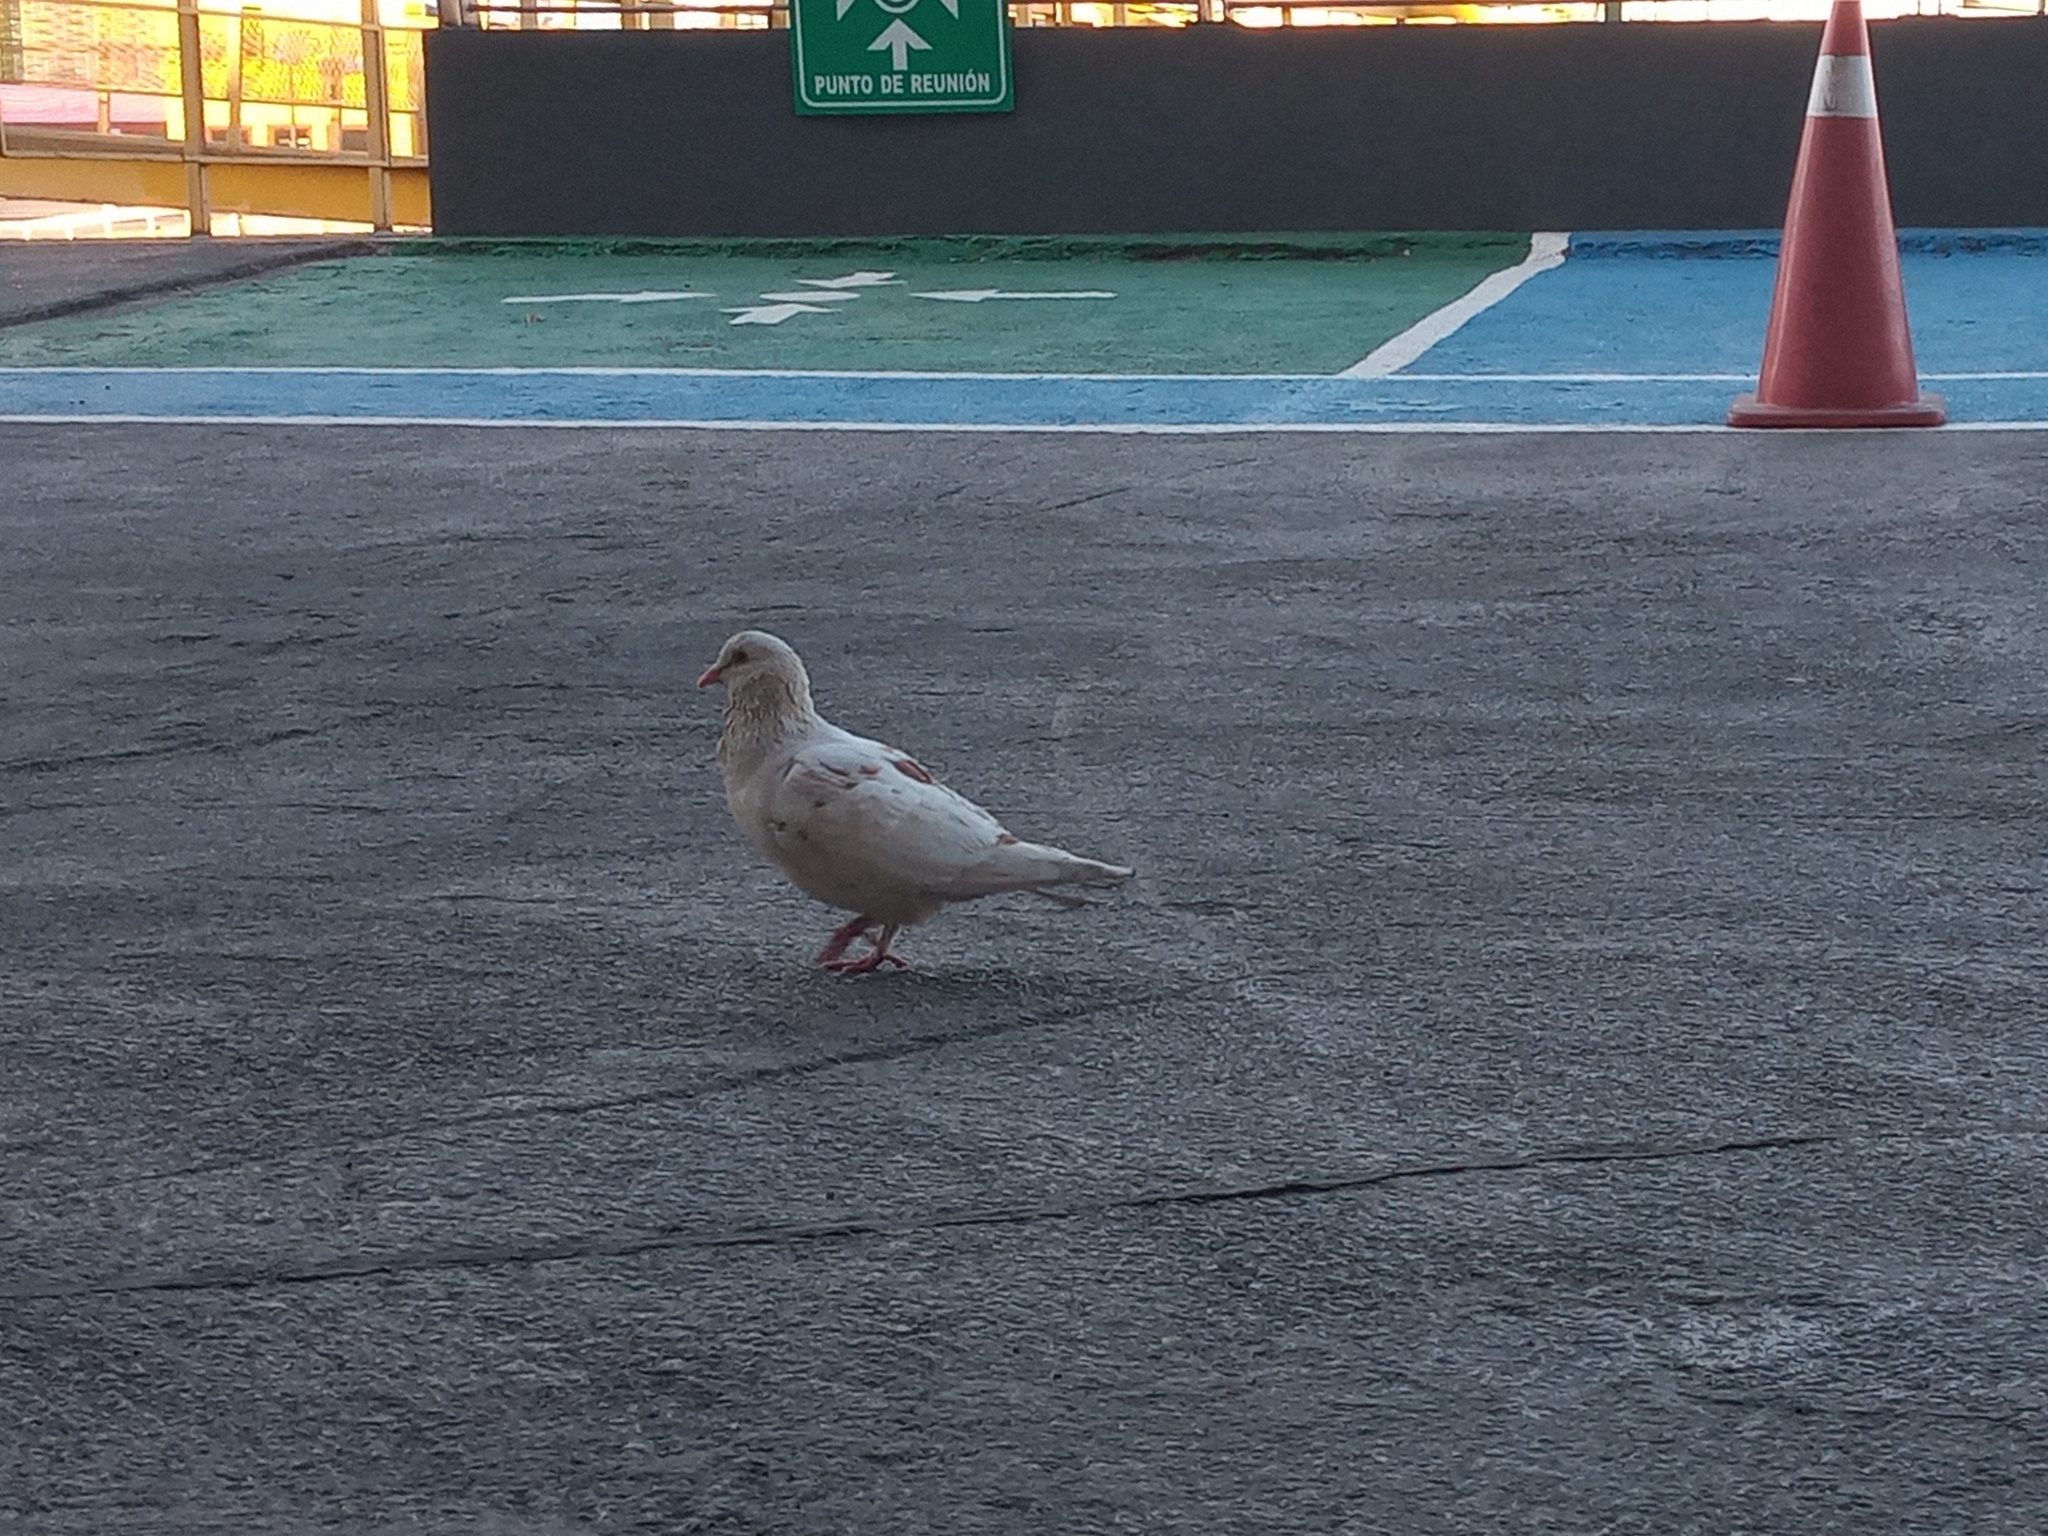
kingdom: Animalia
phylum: Chordata
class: Aves
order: Columbiformes
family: Columbidae
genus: Columba
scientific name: Columba livia
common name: Rock pigeon
